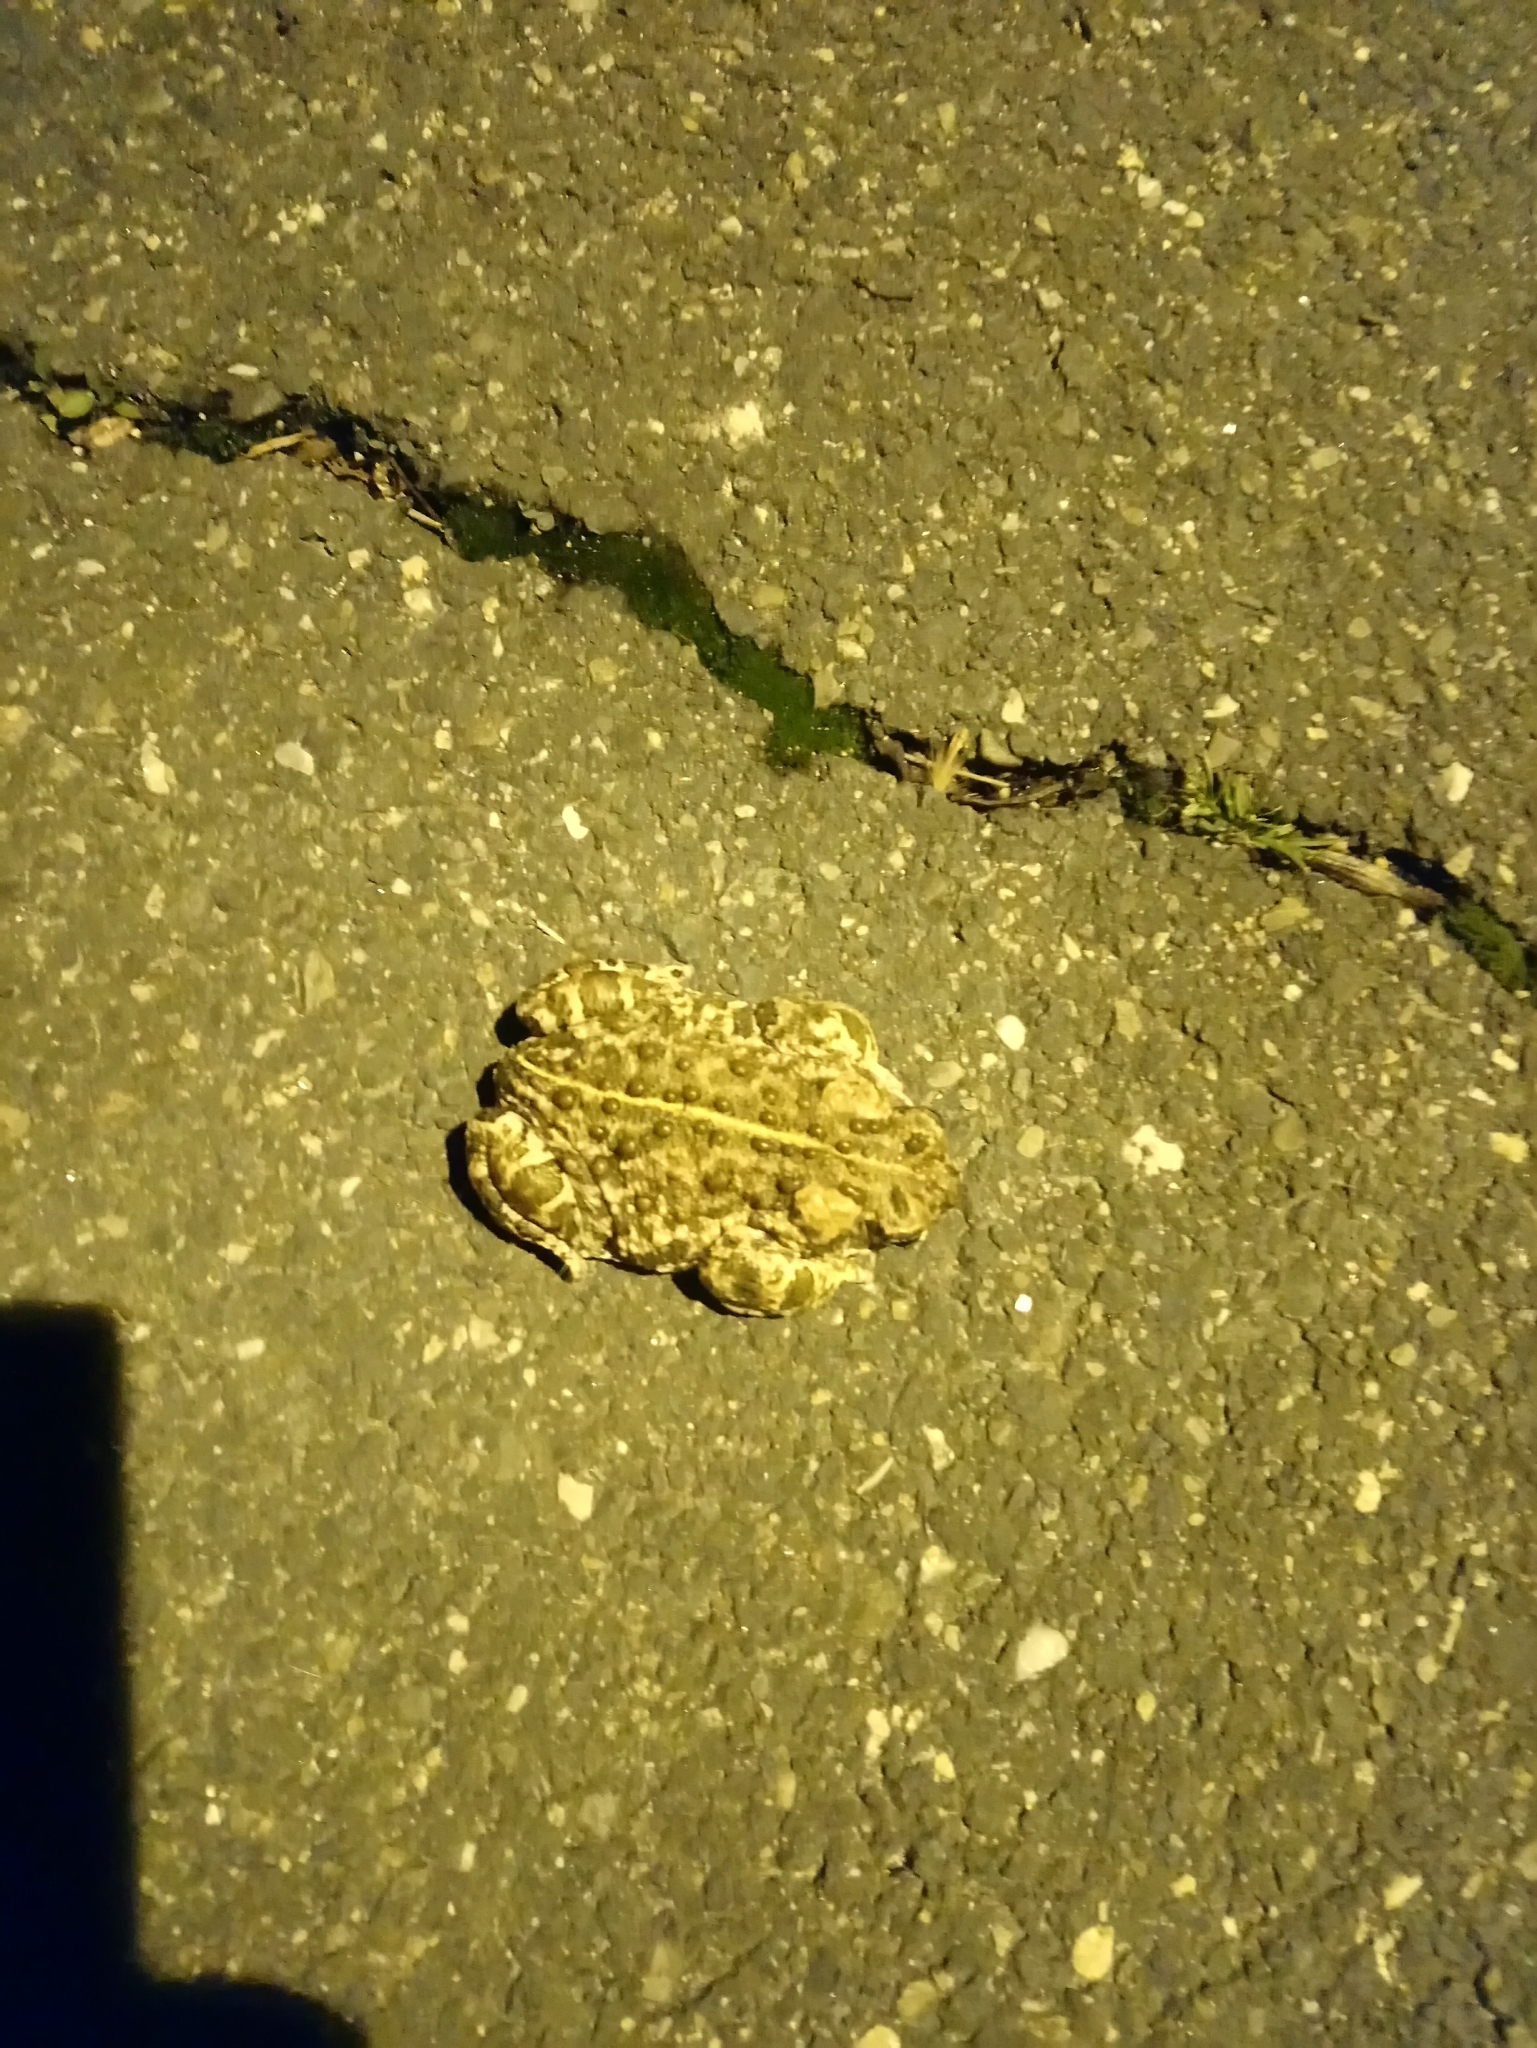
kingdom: Animalia
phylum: Chordata
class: Amphibia
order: Anura
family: Bufonidae
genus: Epidalea
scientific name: Epidalea calamita
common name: Natterjack toad
